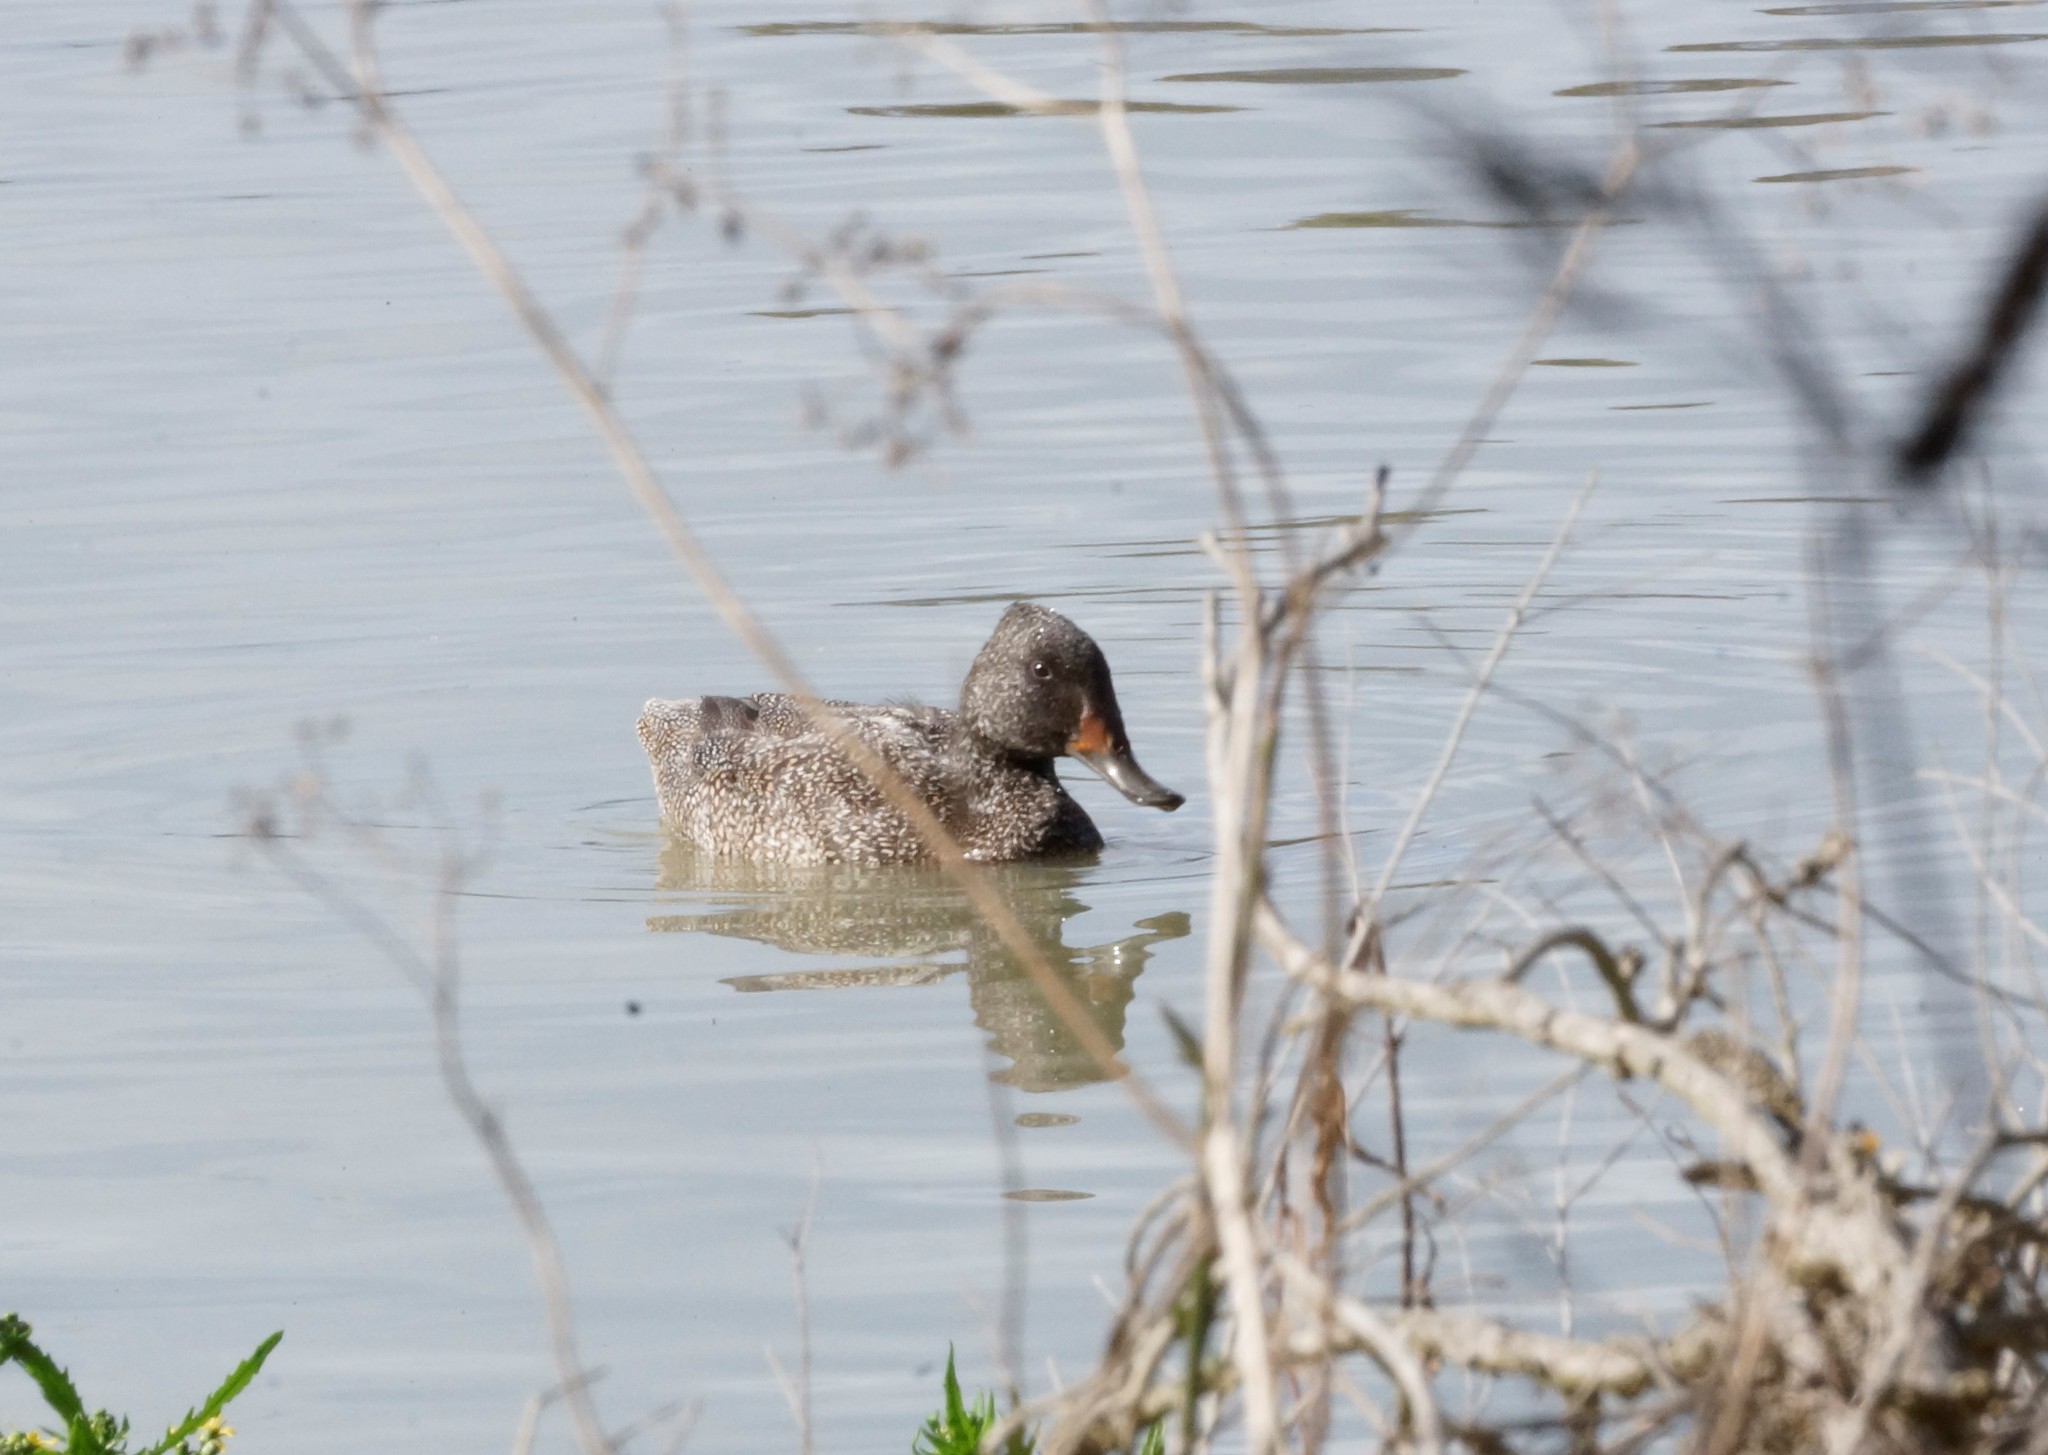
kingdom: Animalia
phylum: Chordata
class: Aves
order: Anseriformes
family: Anatidae
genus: Stictonetta
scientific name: Stictonetta naevosa
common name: Freckled duck
